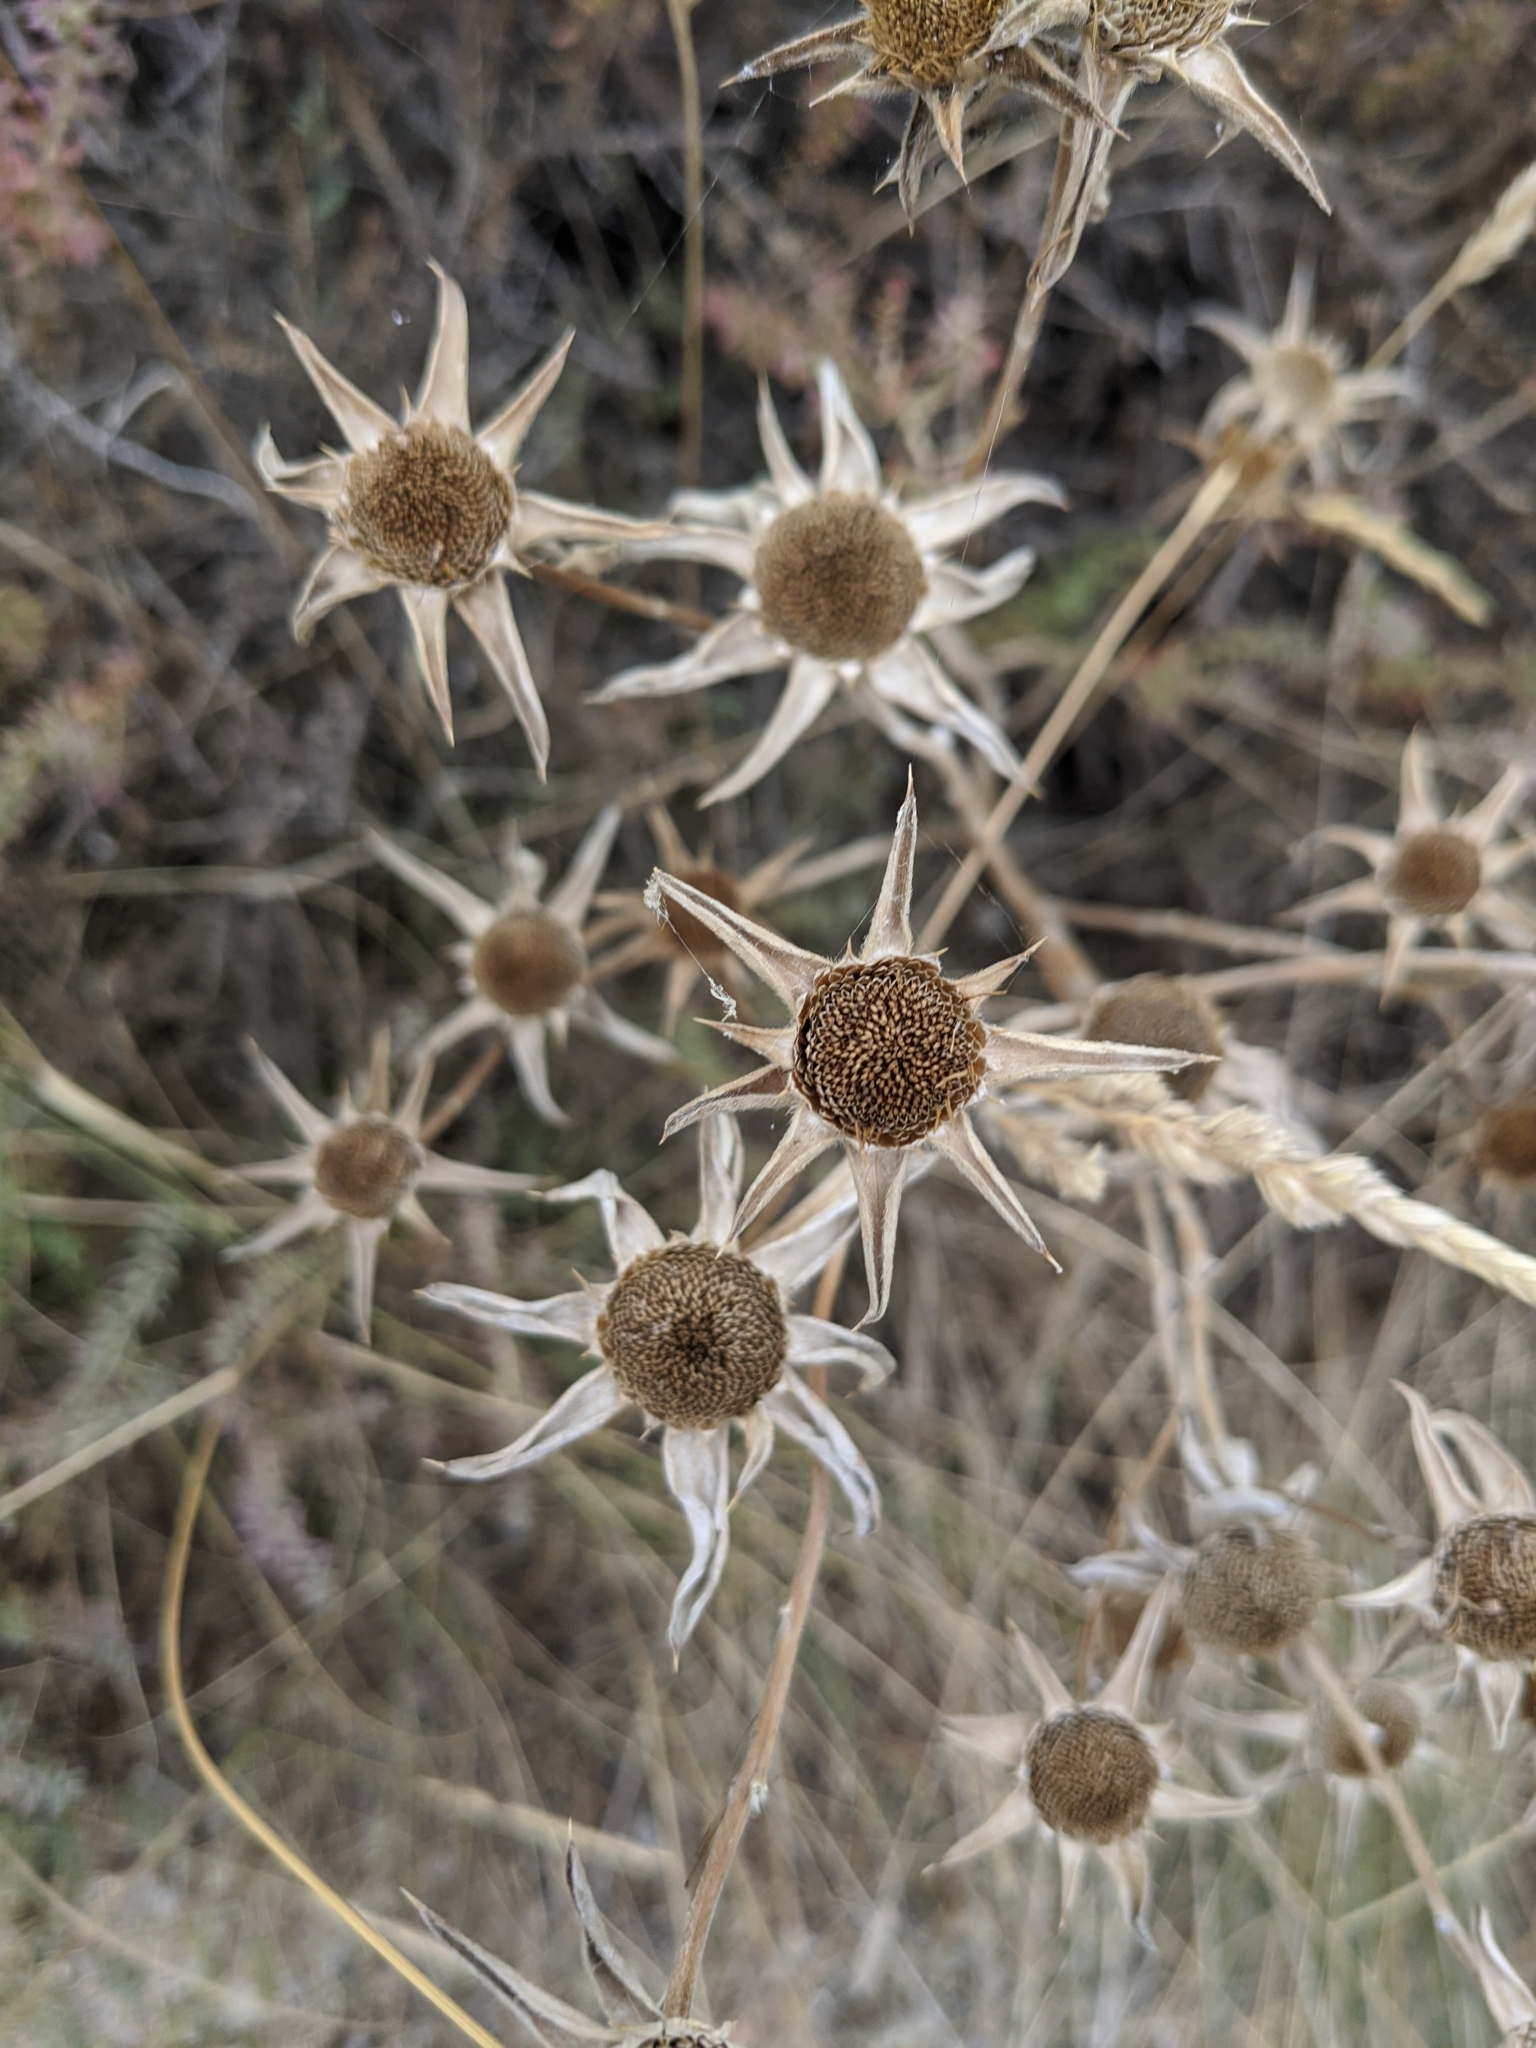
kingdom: Plantae
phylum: Tracheophyta
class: Magnoliopsida
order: Asterales
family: Asteraceae
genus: Pallenis
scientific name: Pallenis spinosa
